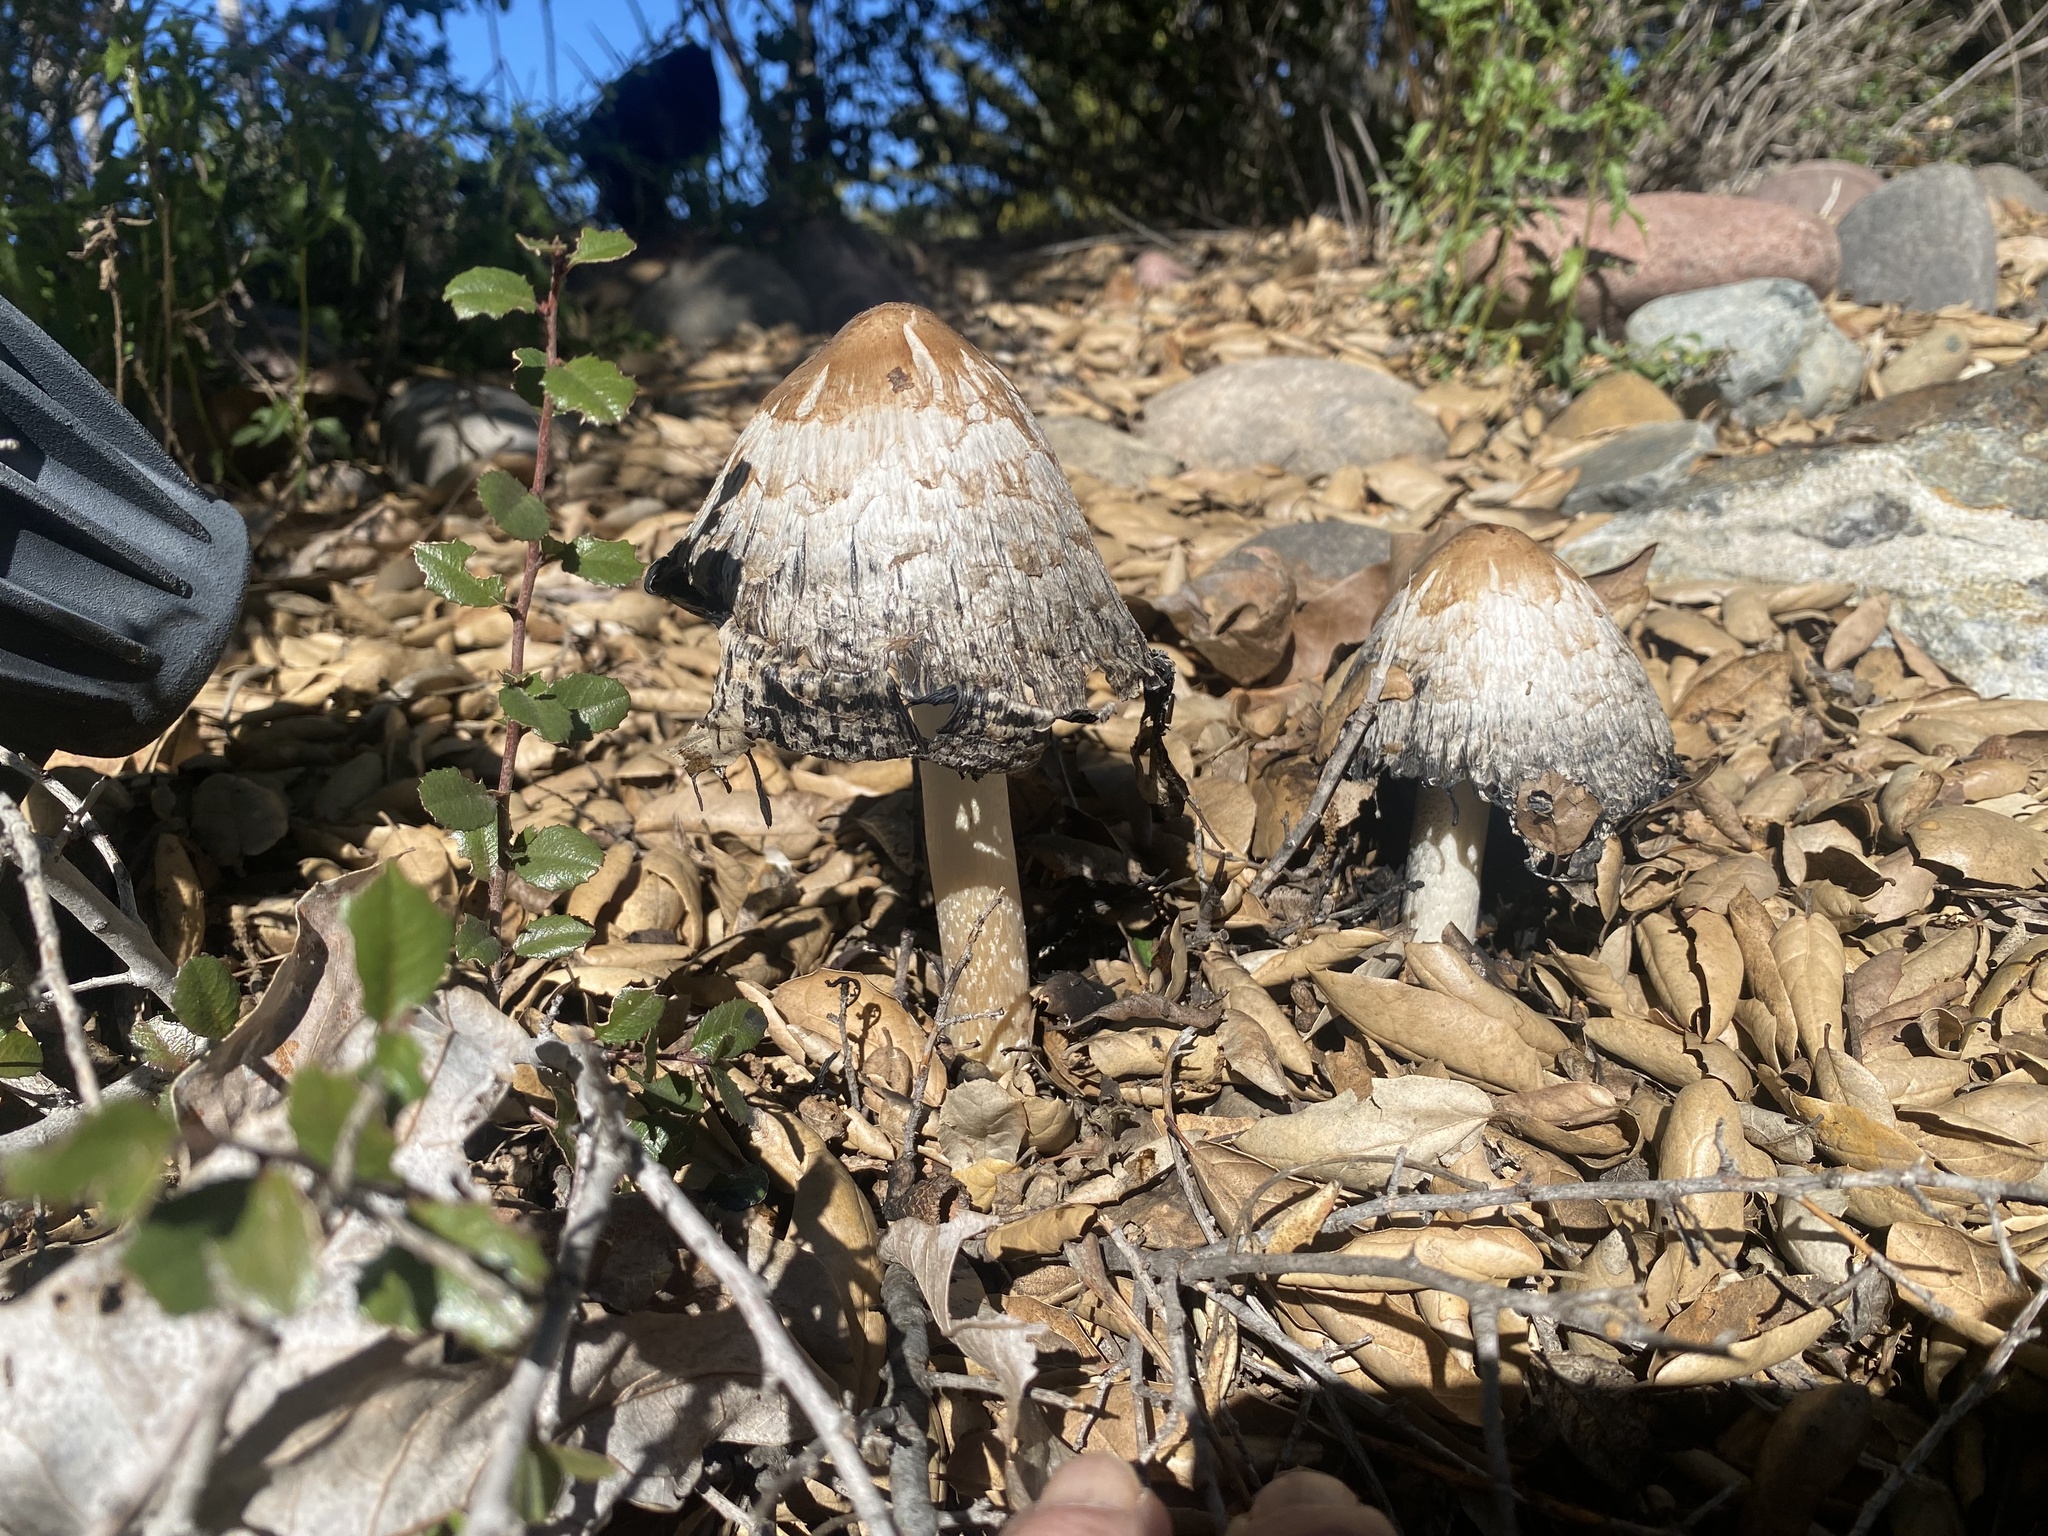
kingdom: Fungi
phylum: Basidiomycota
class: Agaricomycetes
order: Agaricales
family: Agaricaceae
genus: Coprinus
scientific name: Coprinus comatus
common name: Lawyer's wig
